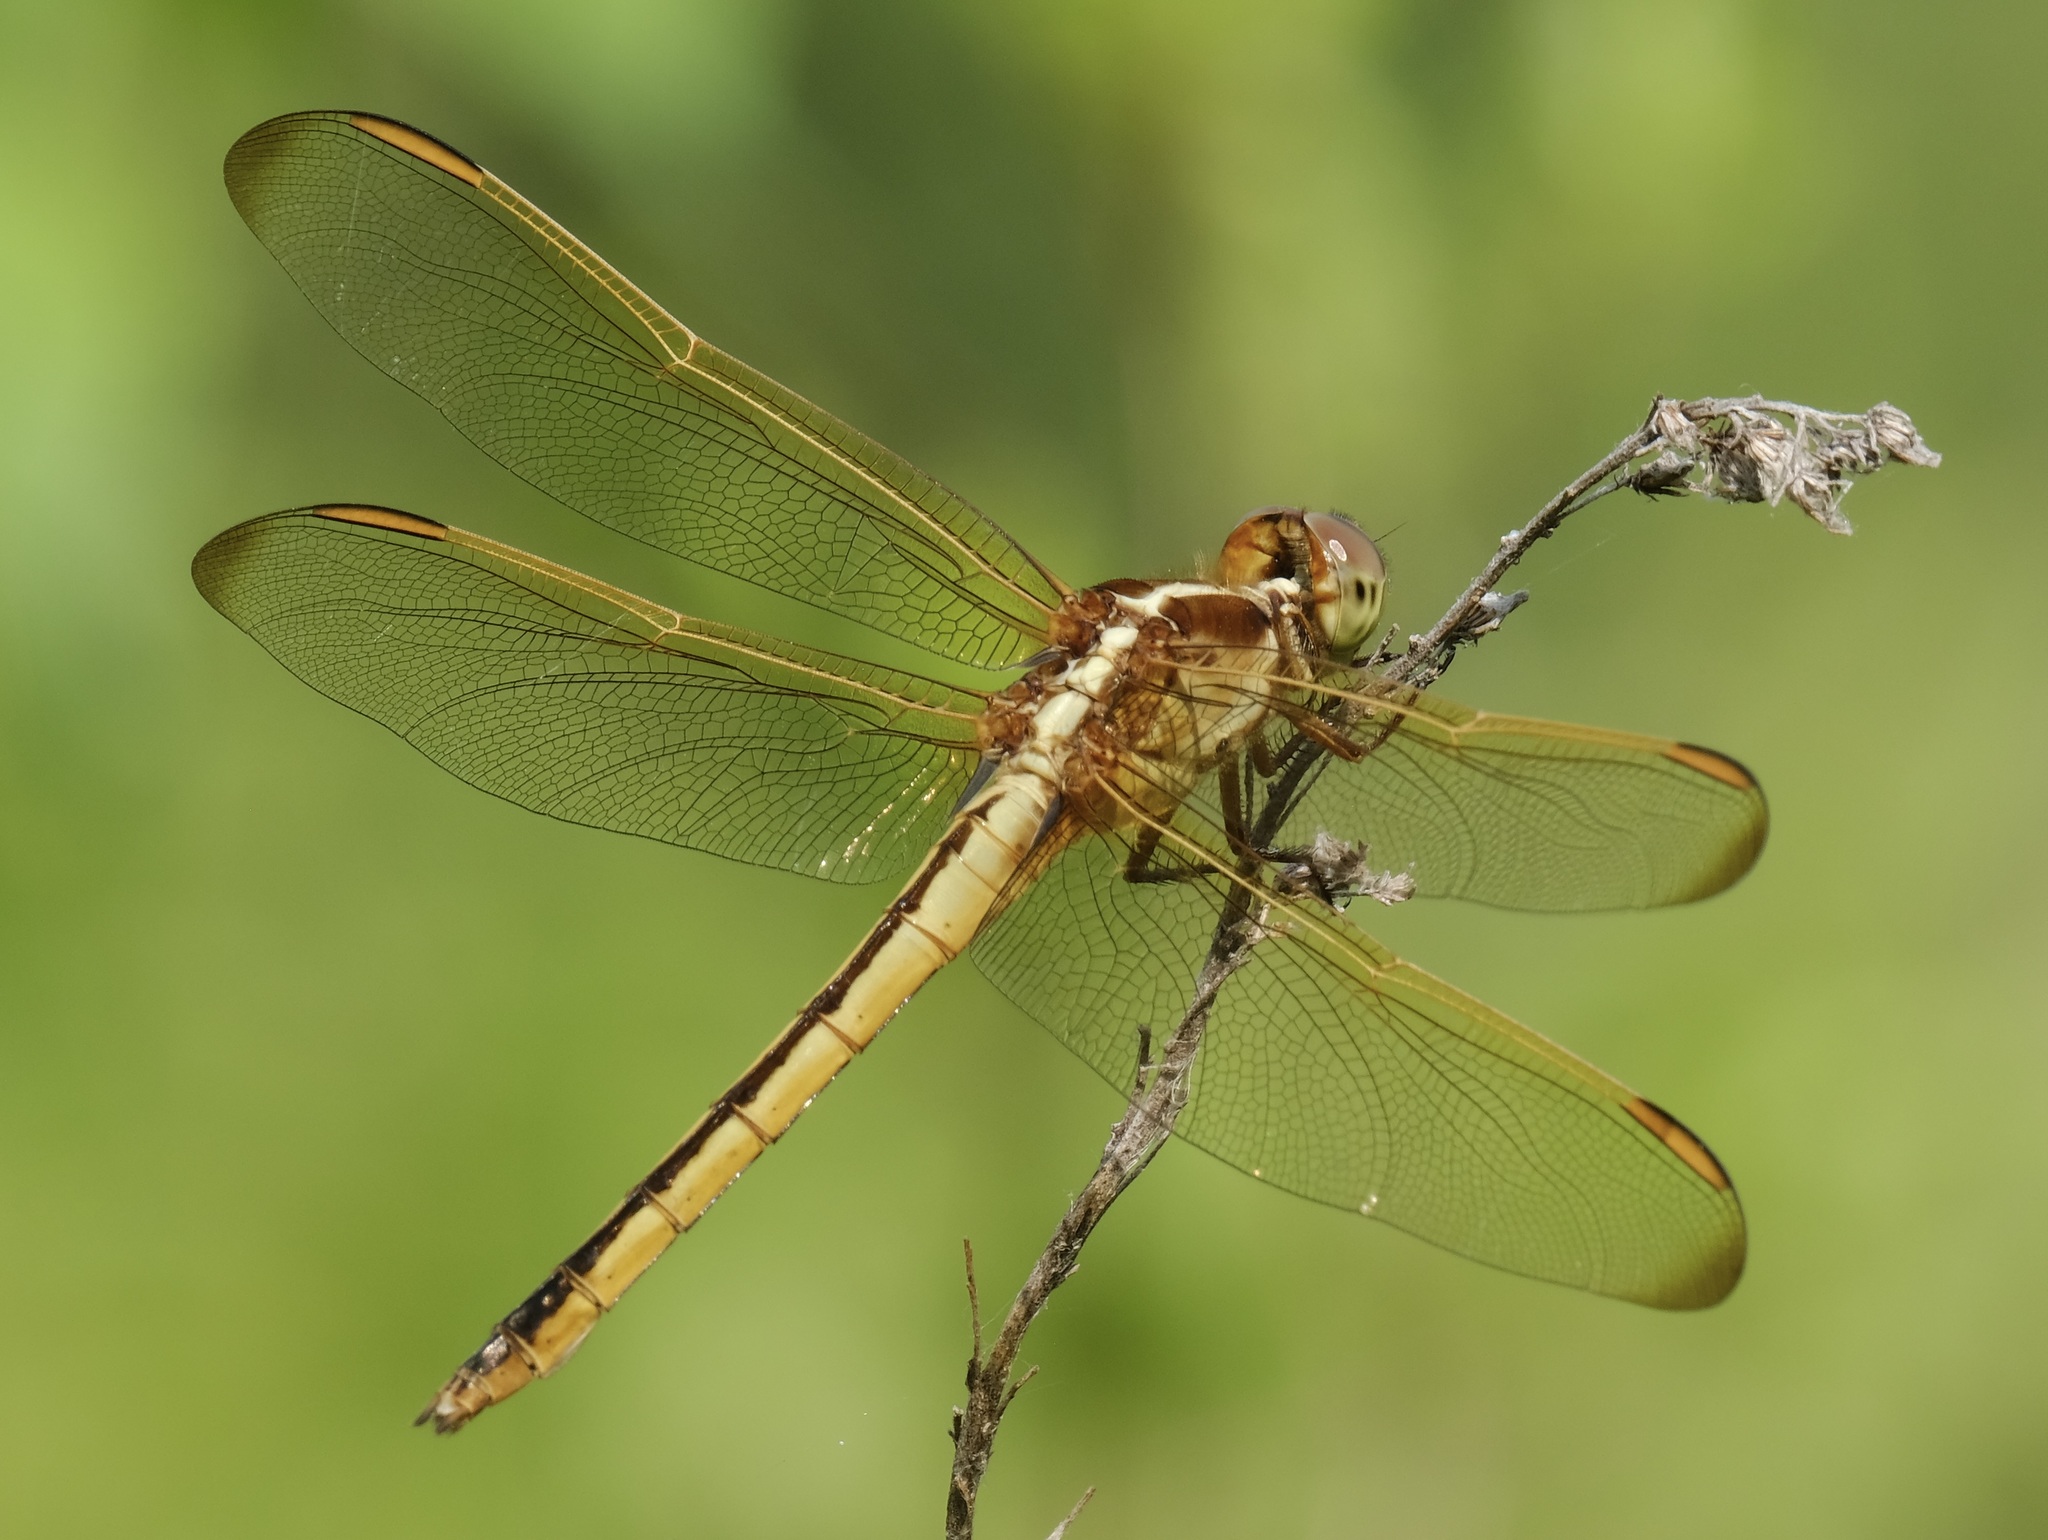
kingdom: Animalia
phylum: Arthropoda
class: Insecta
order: Odonata
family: Libellulidae
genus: Libellula
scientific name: Libellula needhami
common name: Needham's skimmer
